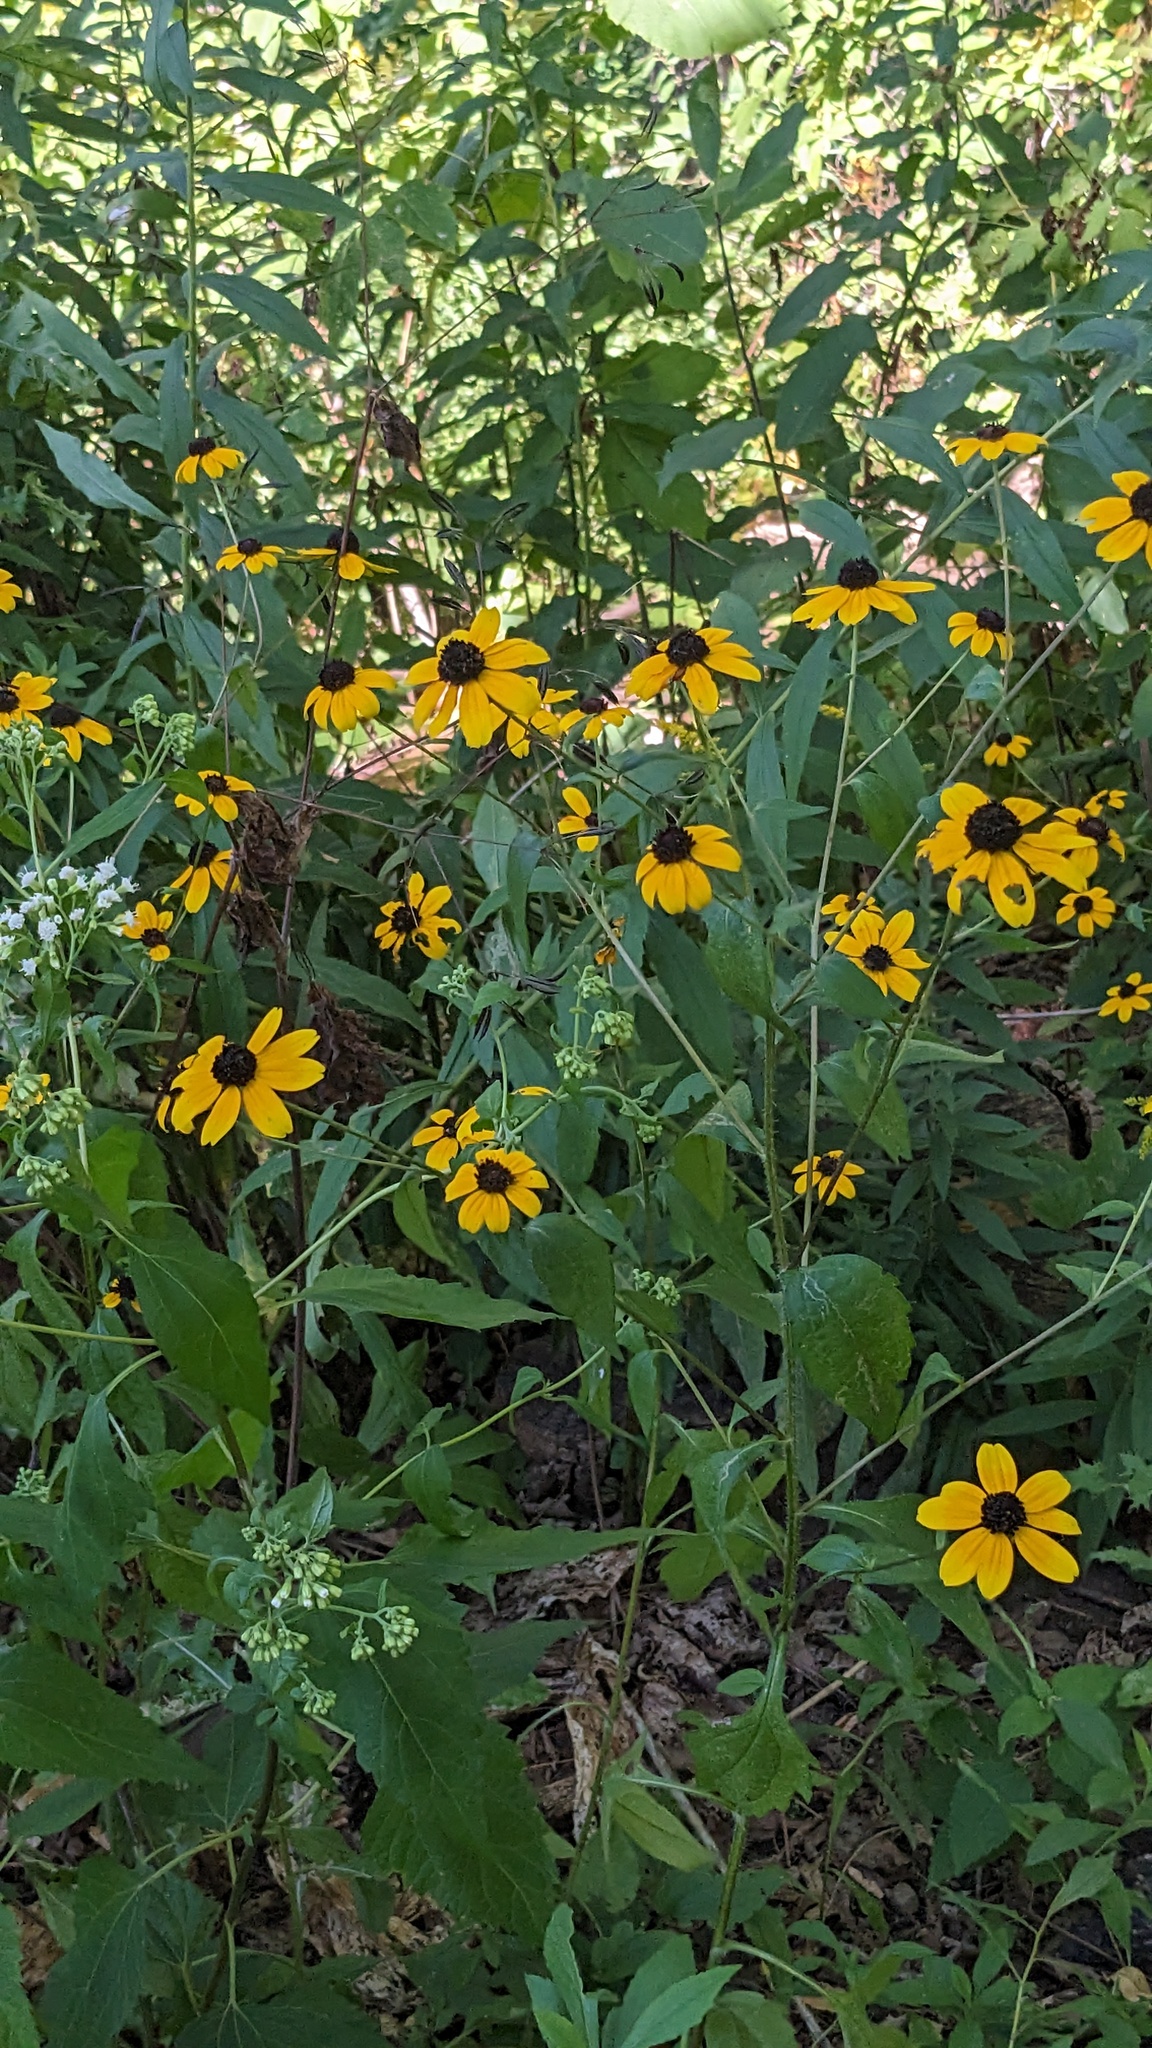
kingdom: Plantae
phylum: Tracheophyta
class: Magnoliopsida
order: Asterales
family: Asteraceae
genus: Rudbeckia
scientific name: Rudbeckia triloba
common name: Thin-leaved coneflower
